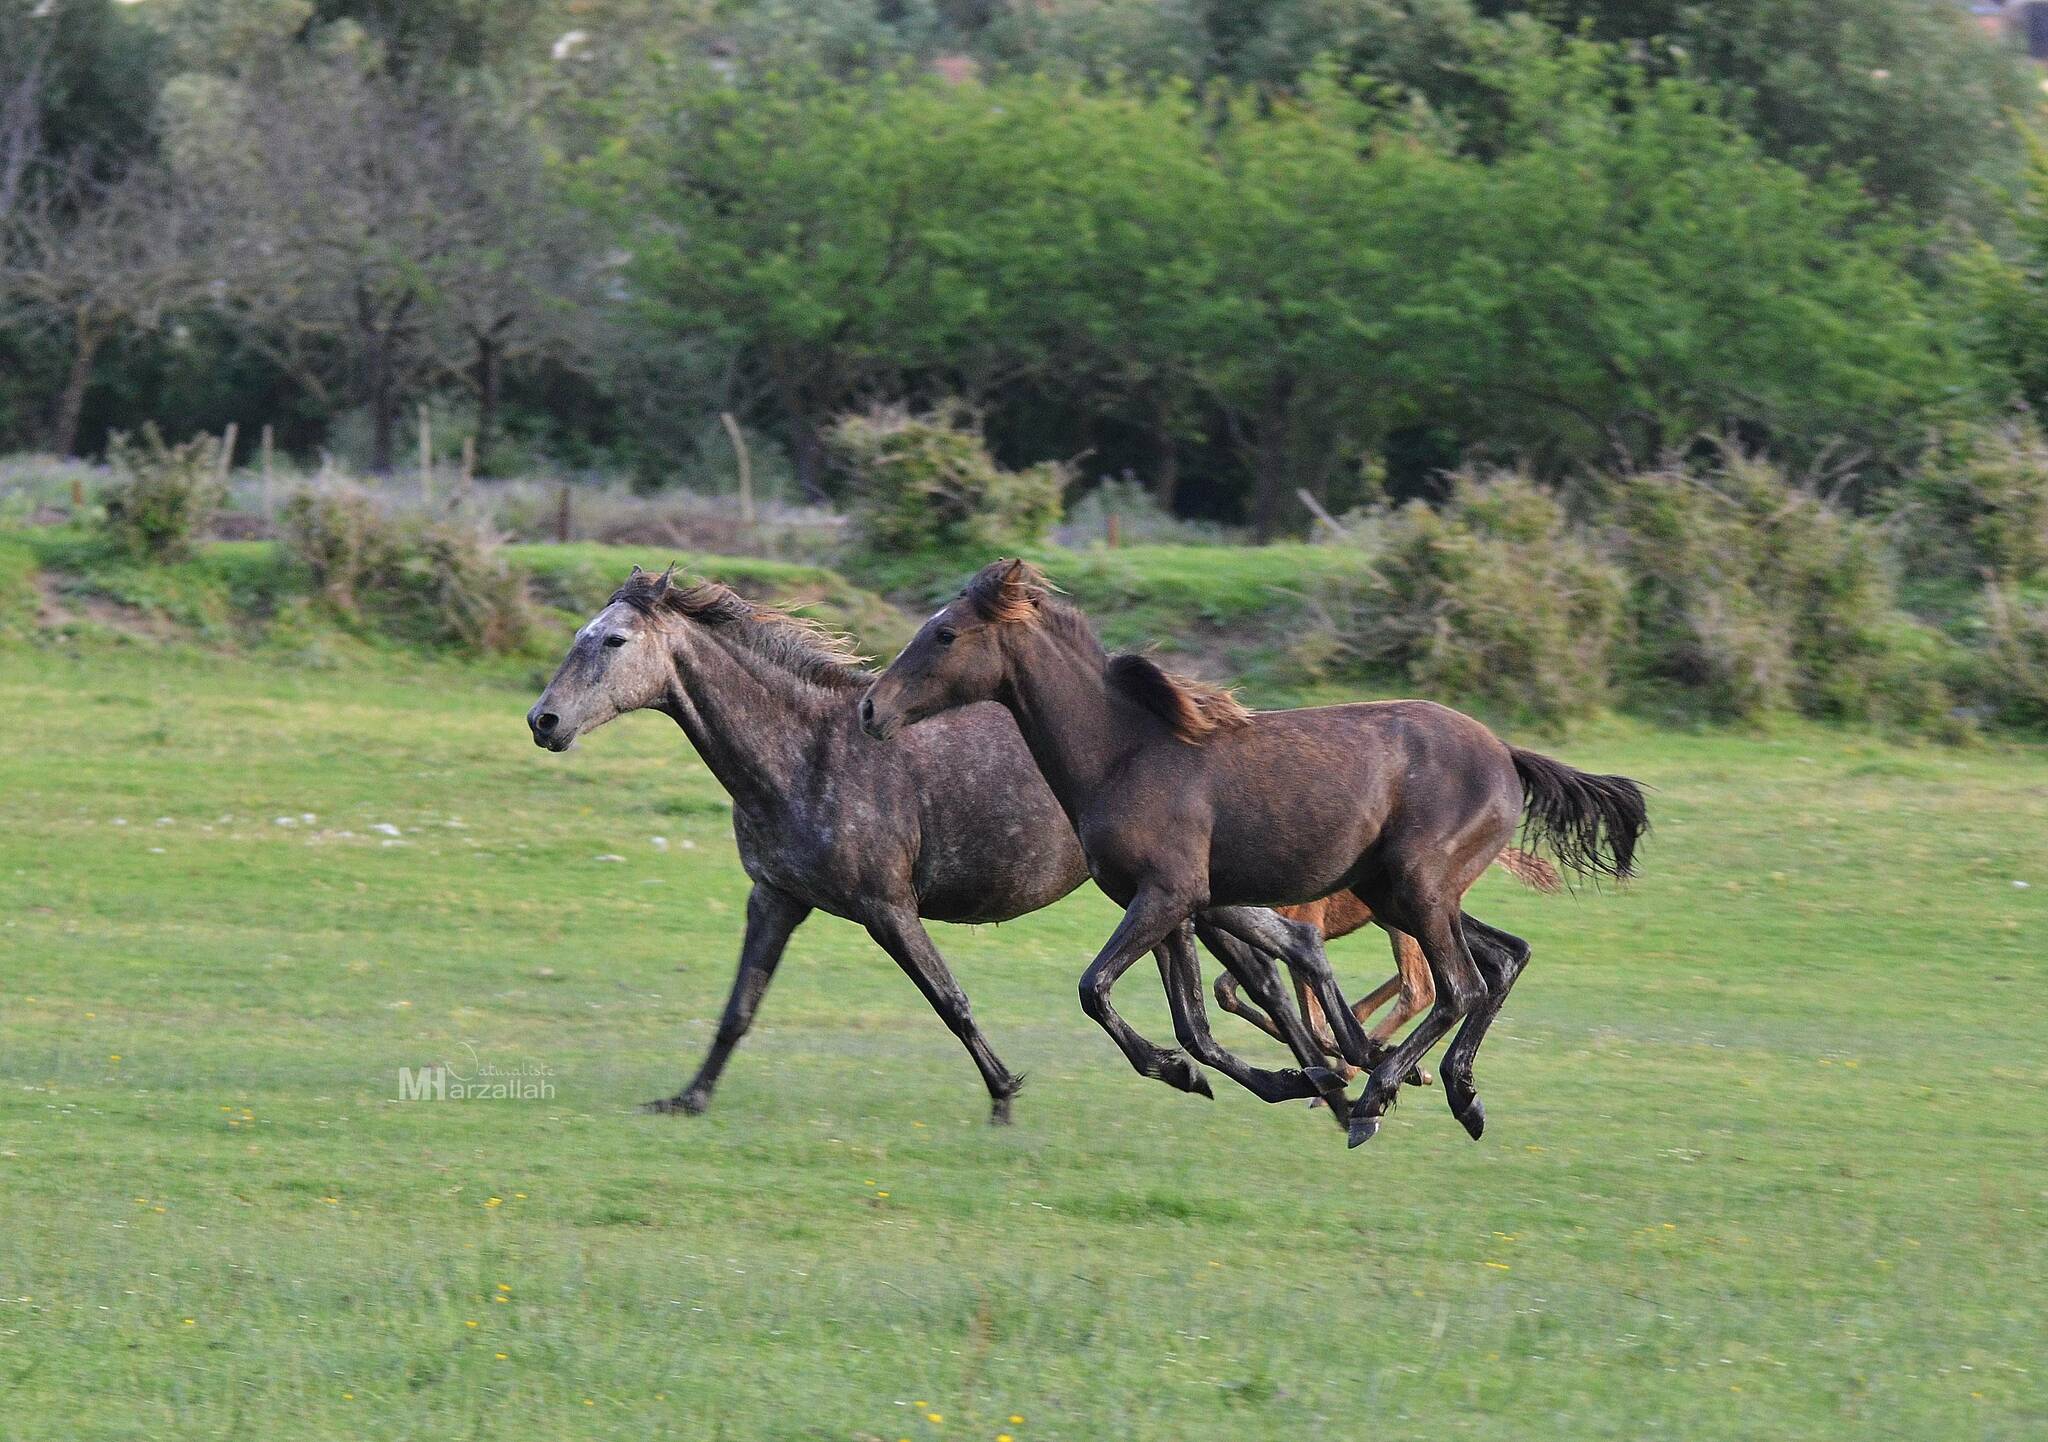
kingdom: Animalia
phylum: Chordata
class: Mammalia
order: Perissodactyla
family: Equidae
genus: Equus
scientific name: Equus caballus
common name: Horse
